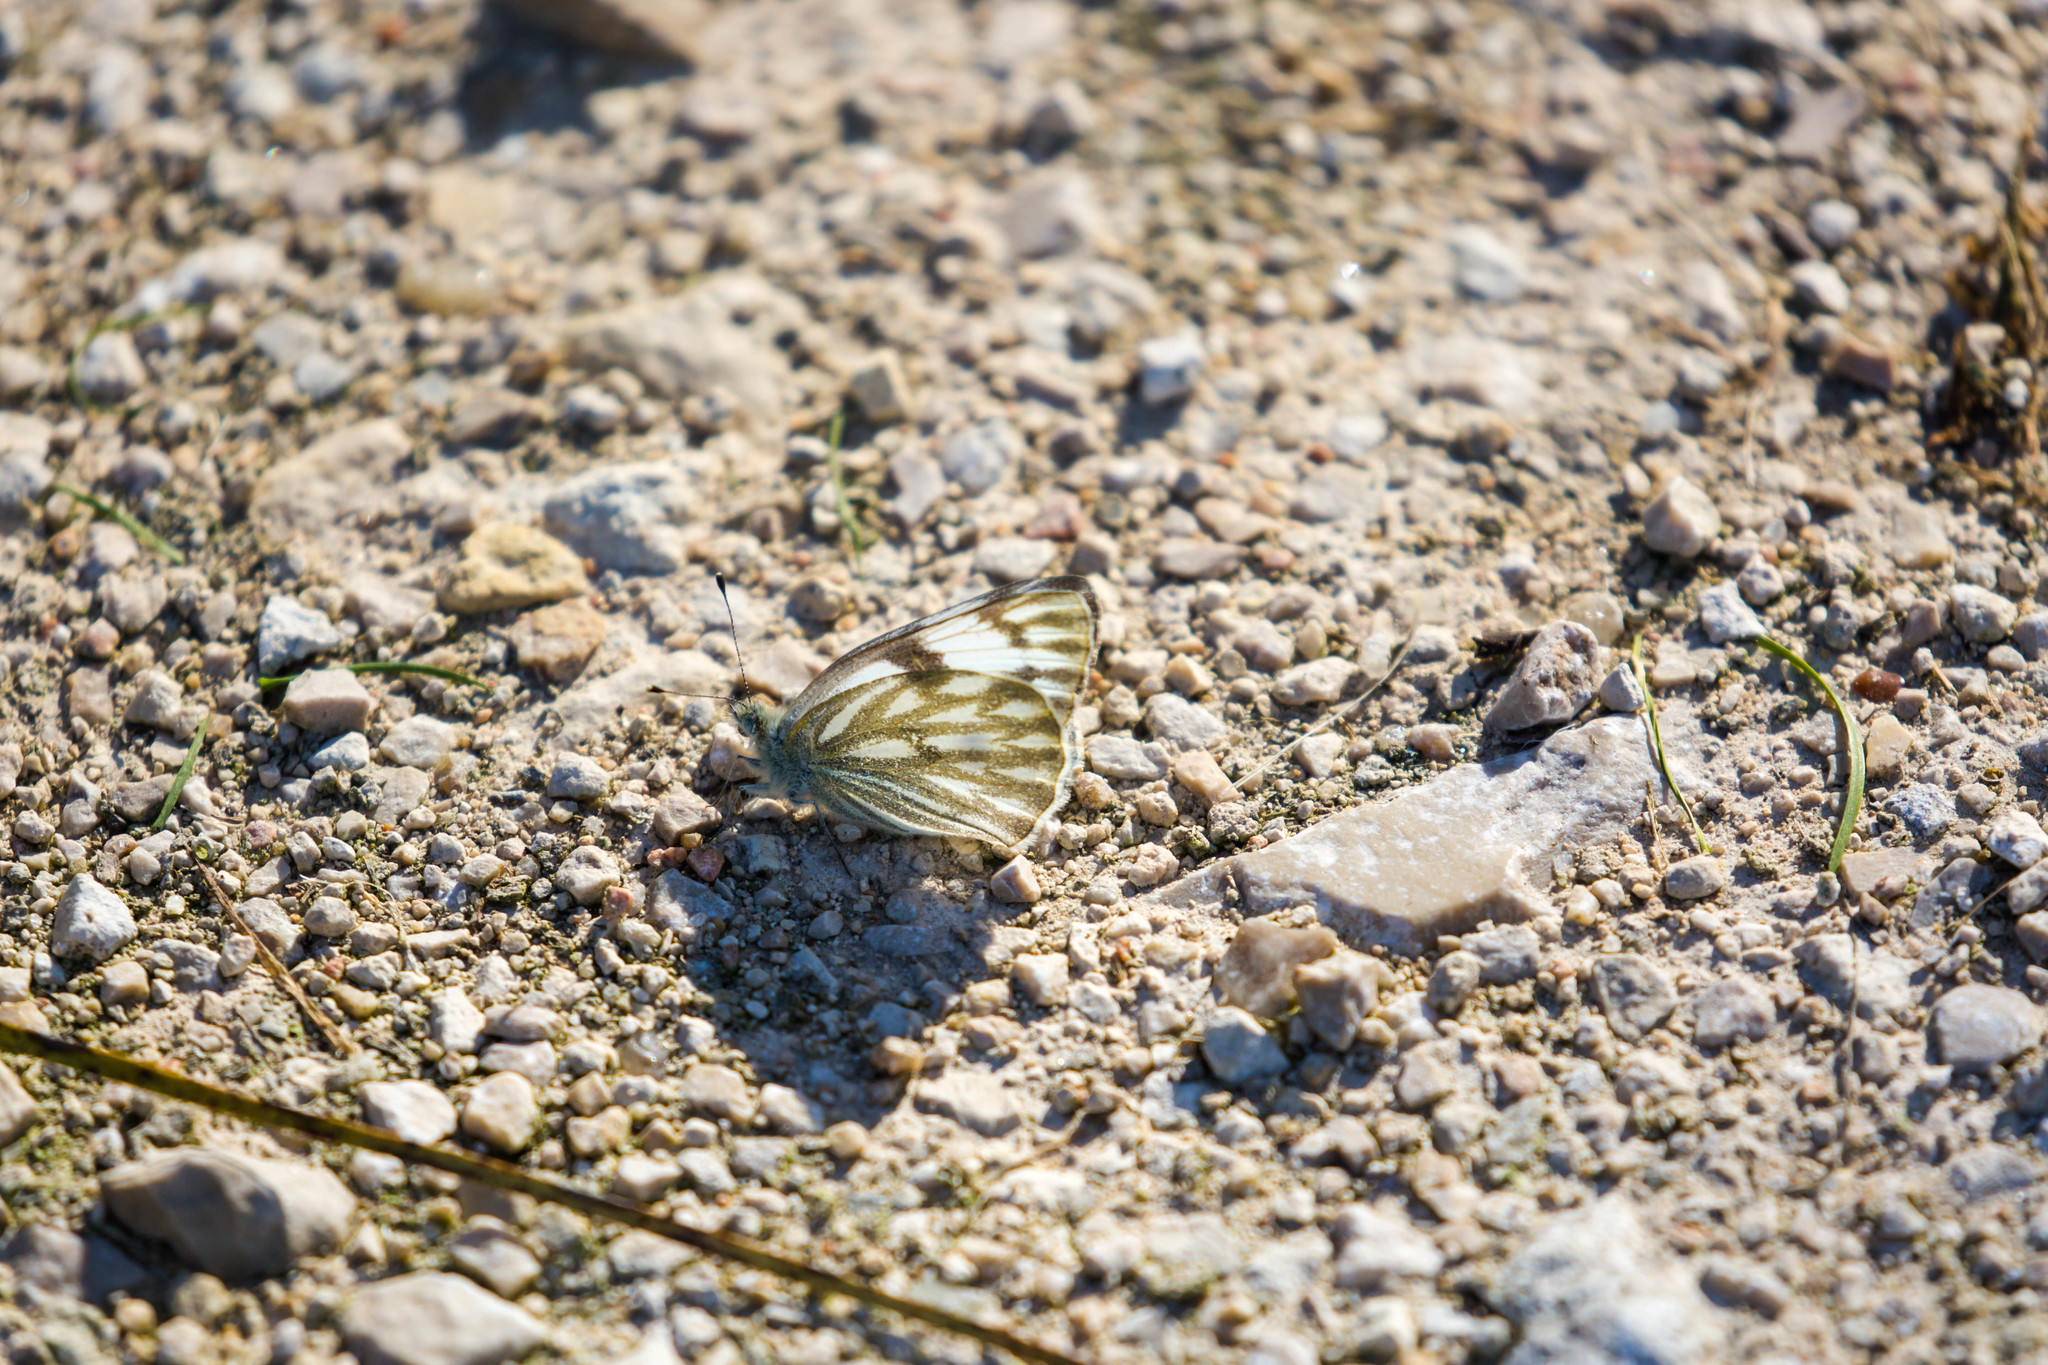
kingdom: Animalia
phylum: Arthropoda
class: Insecta
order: Lepidoptera
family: Pieridae
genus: Pontia
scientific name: Pontia protodice
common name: Checkered white
